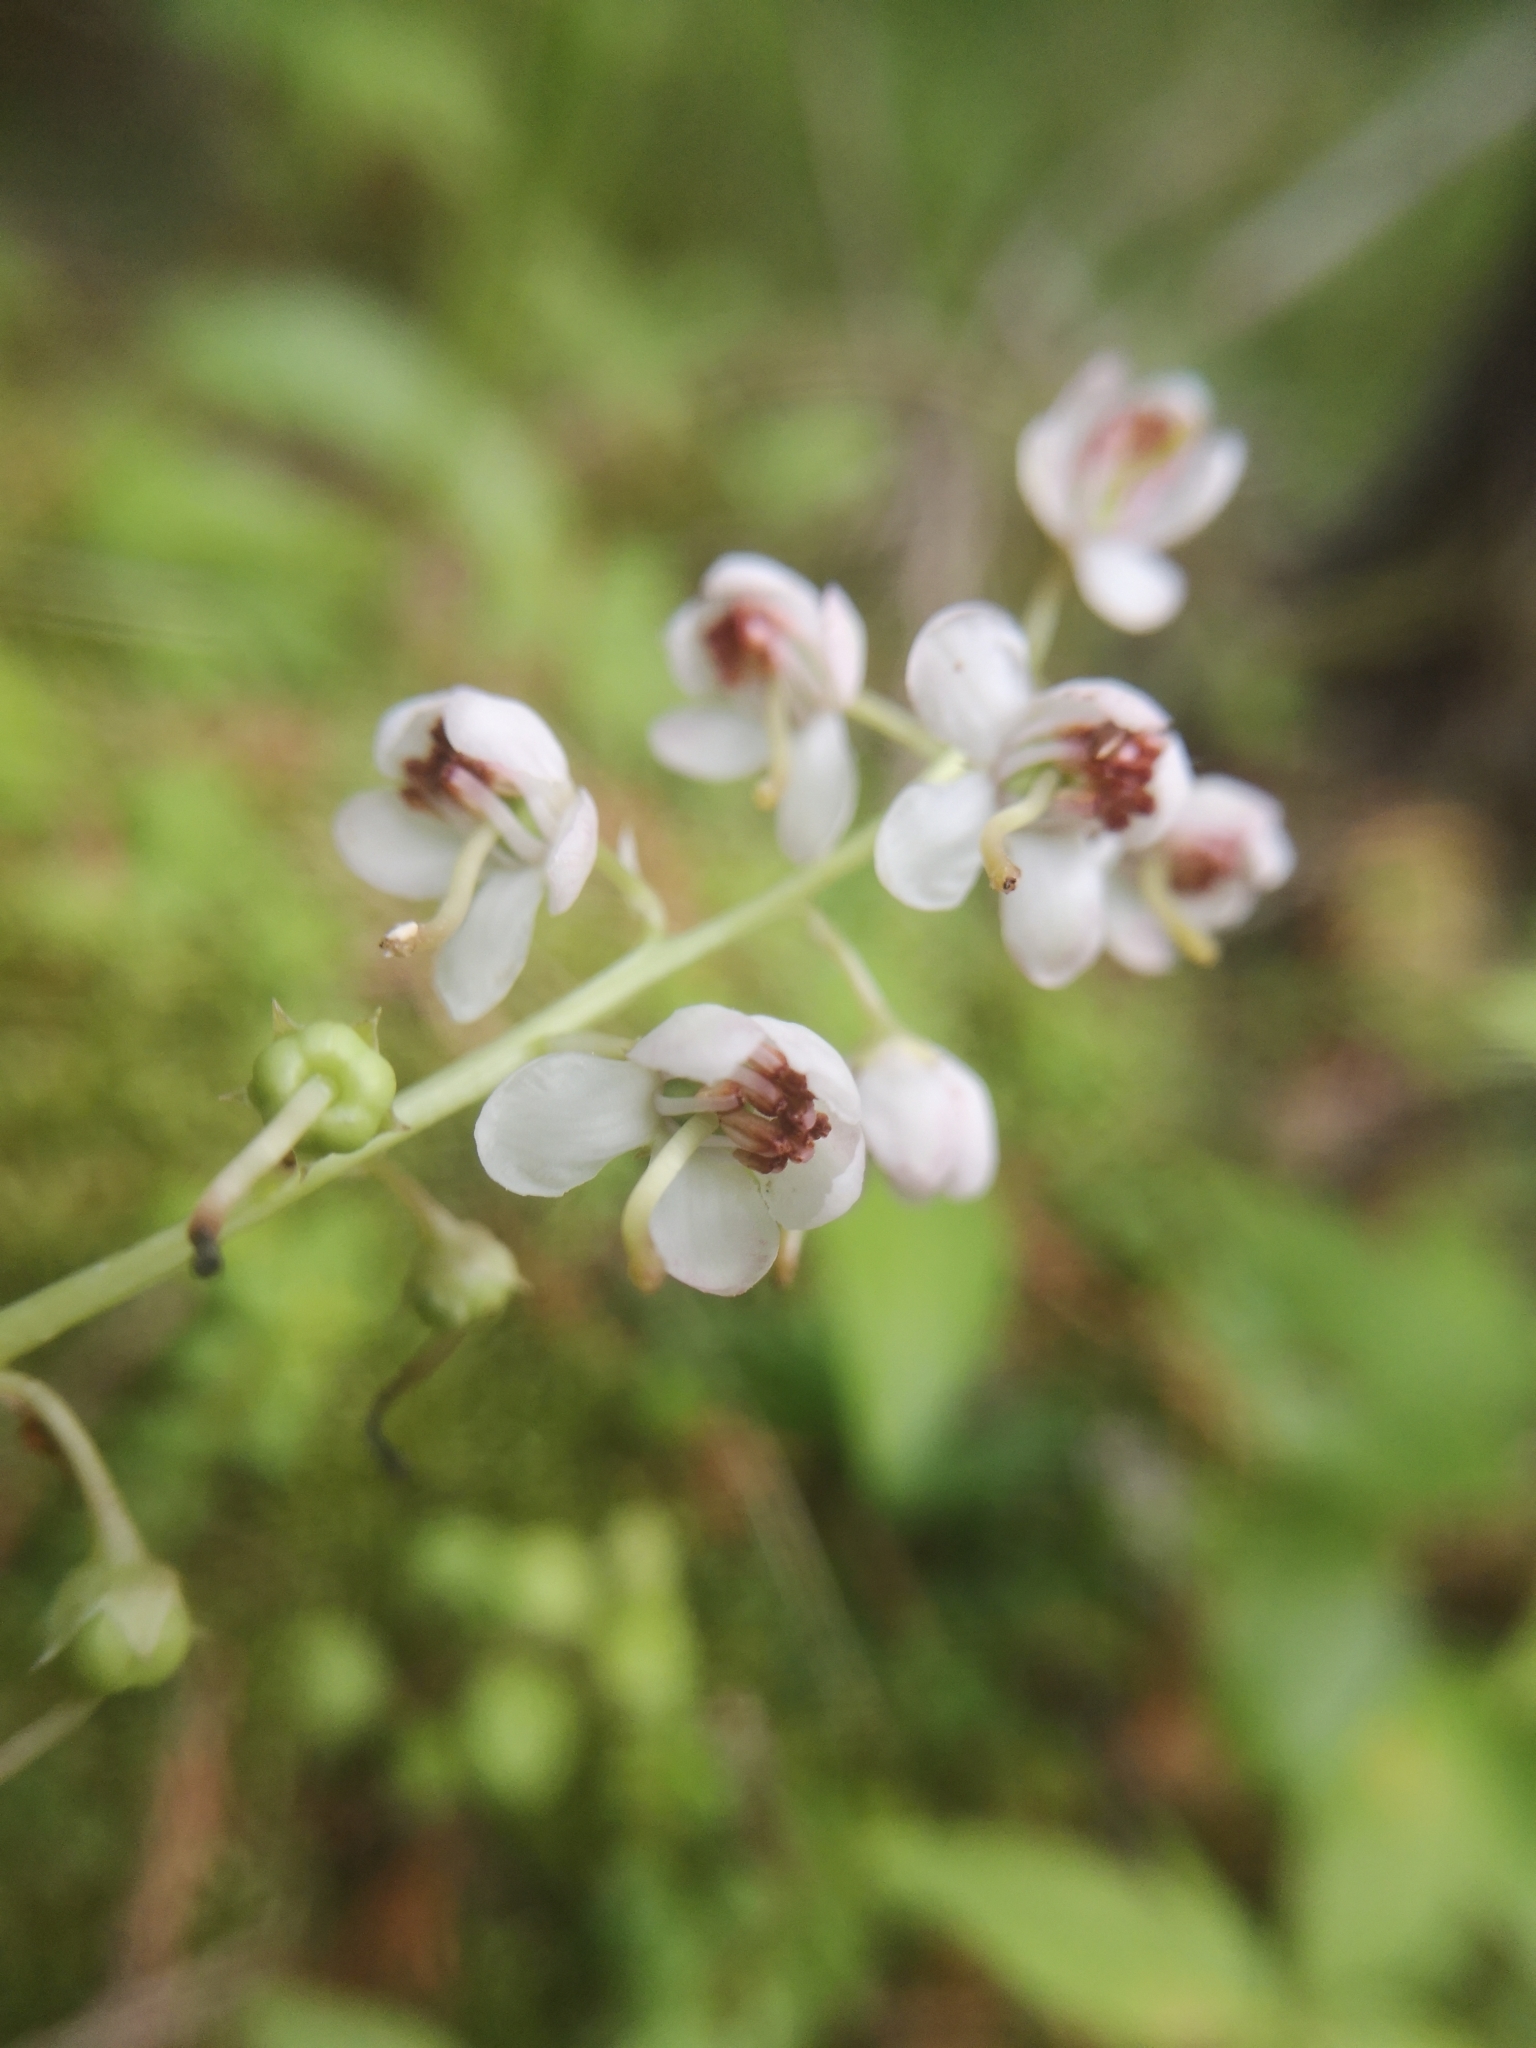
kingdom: Plantae
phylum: Tracheophyta
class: Magnoliopsida
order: Ericales
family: Ericaceae
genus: Pyrola
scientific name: Pyrola asarifolia
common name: Bog wintergreen
